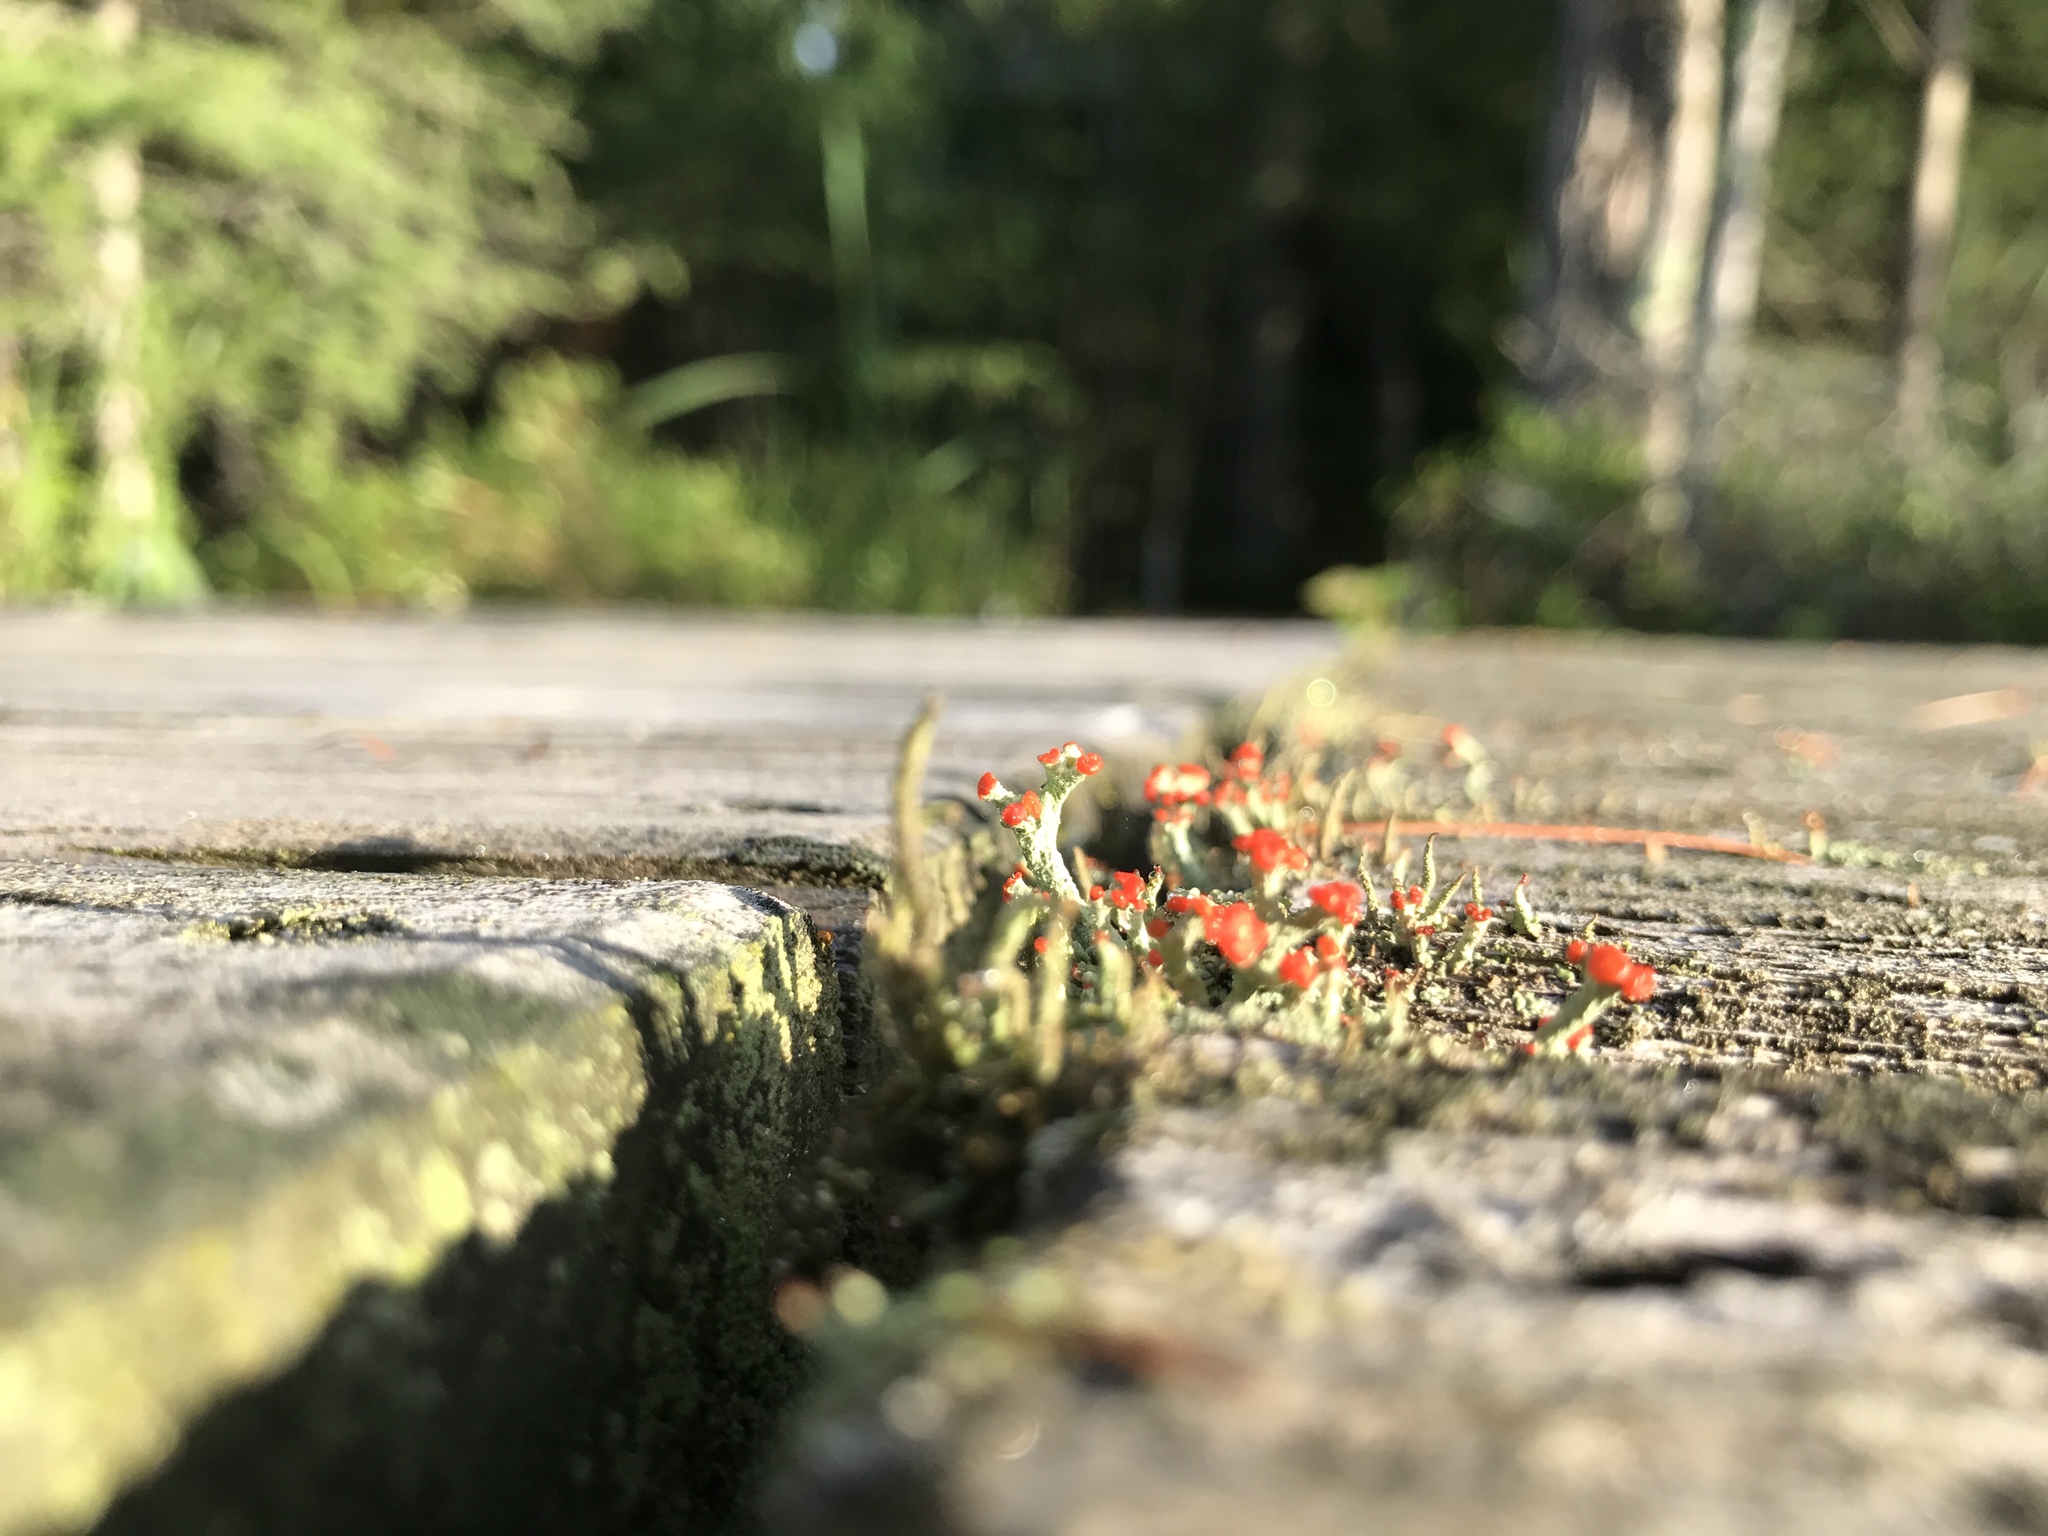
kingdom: Fungi
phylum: Ascomycota
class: Lecanoromycetes
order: Lecanorales
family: Cladoniaceae
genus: Cladonia
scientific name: Cladonia cristatella
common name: British soldier lichen
